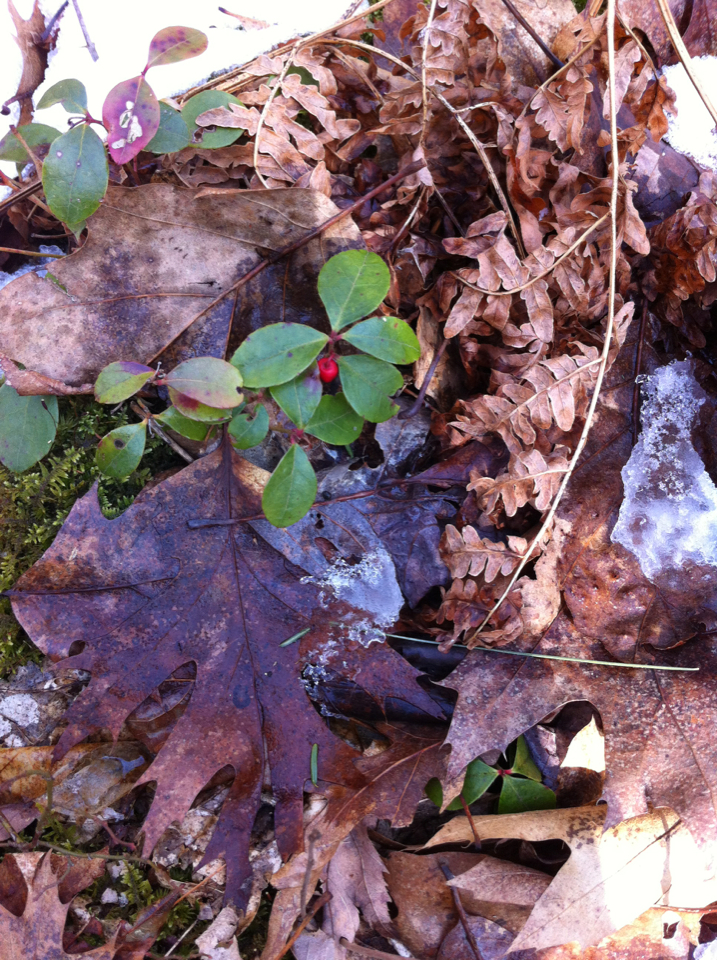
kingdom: Plantae
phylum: Tracheophyta
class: Magnoliopsida
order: Ericales
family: Ericaceae
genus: Gaultheria
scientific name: Gaultheria procumbens
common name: Checkerberry
